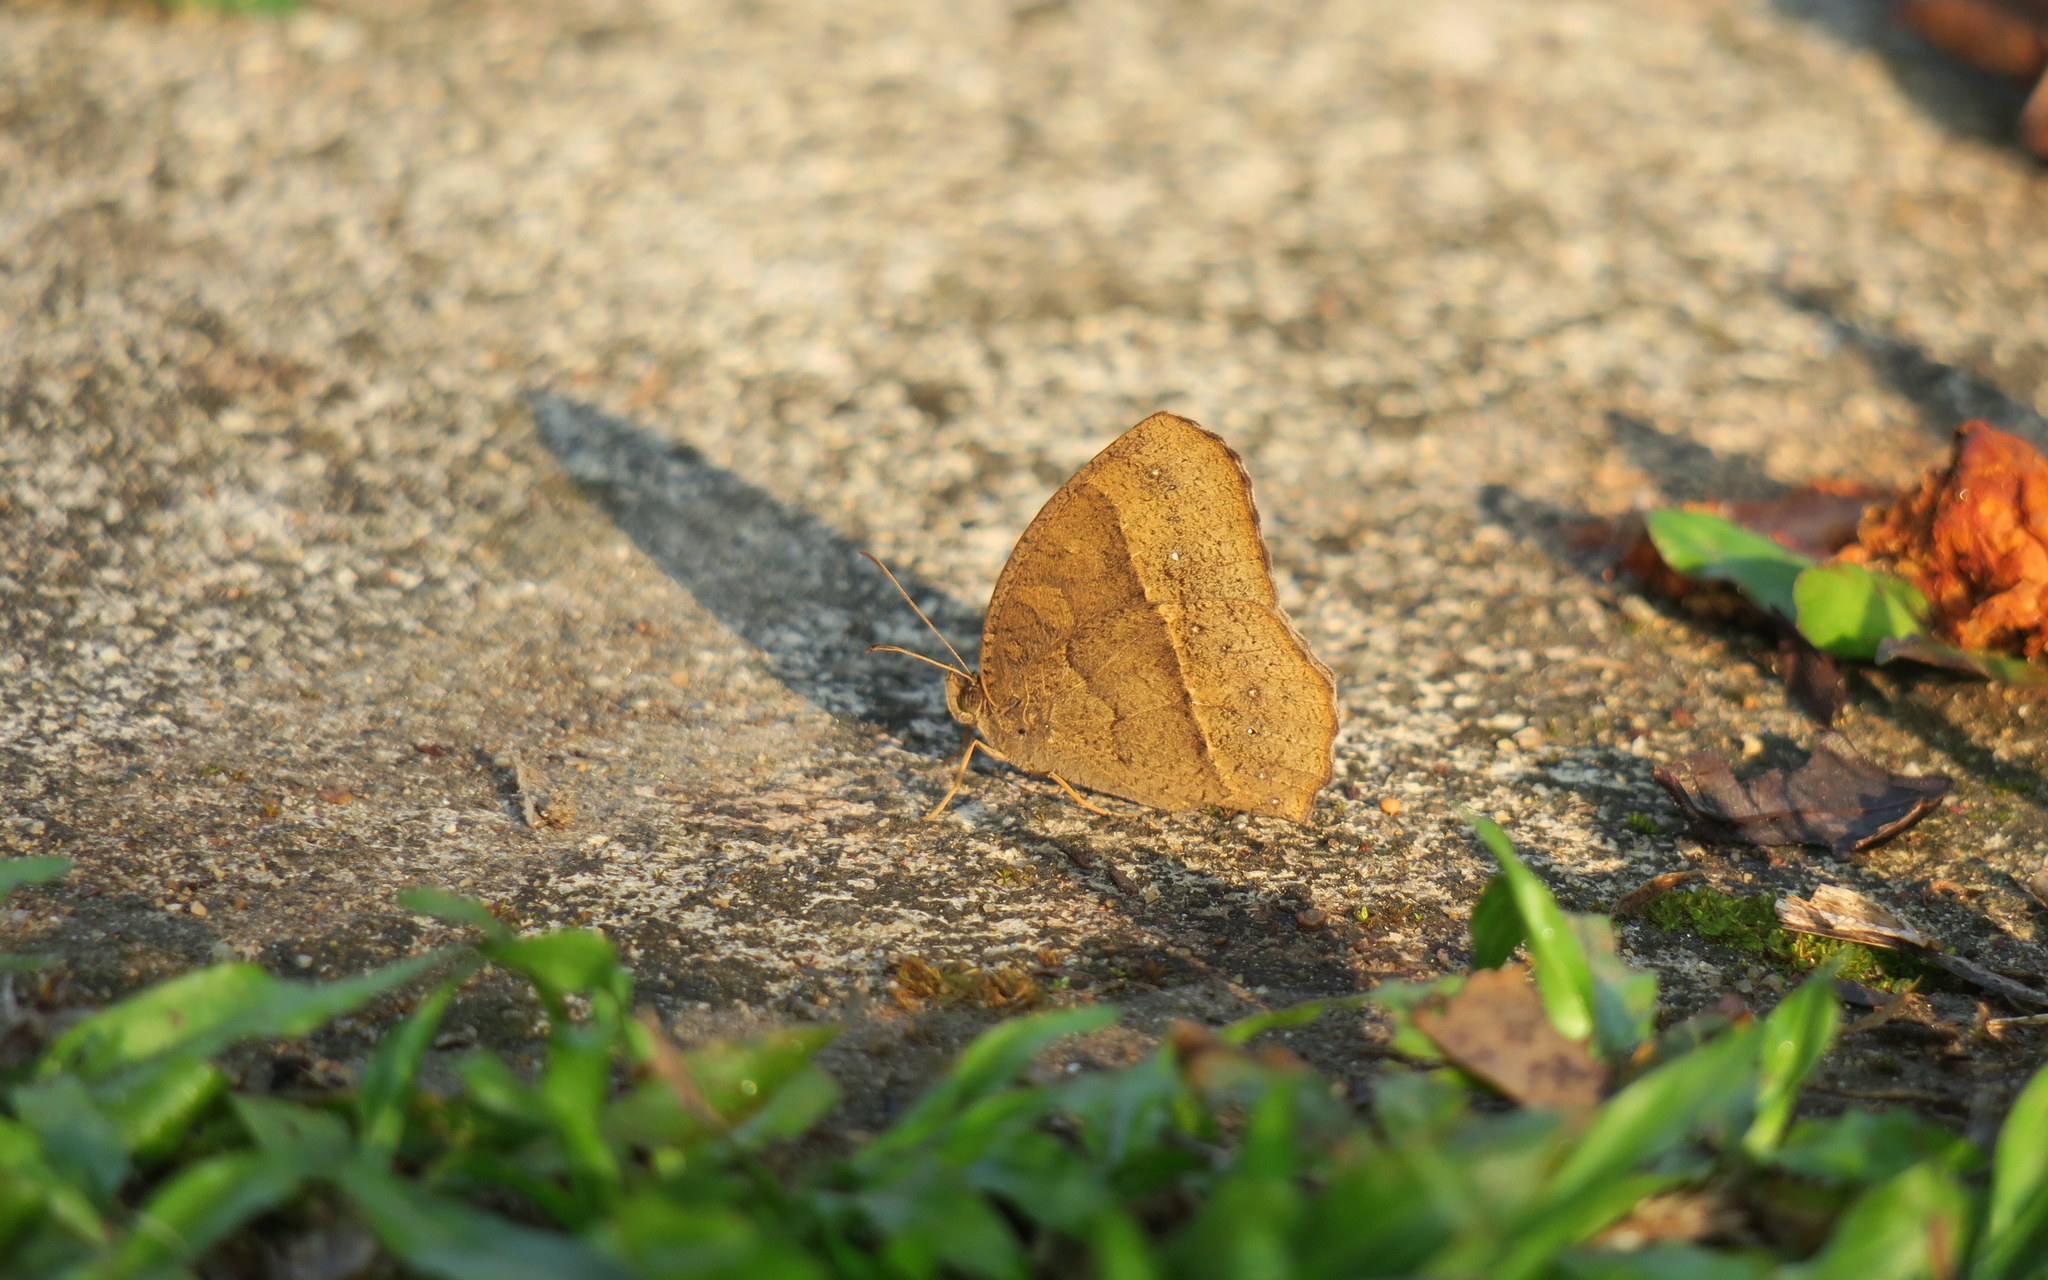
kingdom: Animalia
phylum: Arthropoda
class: Insecta
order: Lepidoptera
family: Nymphalidae
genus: Mycalesis
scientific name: Mycalesis horsfieldii
